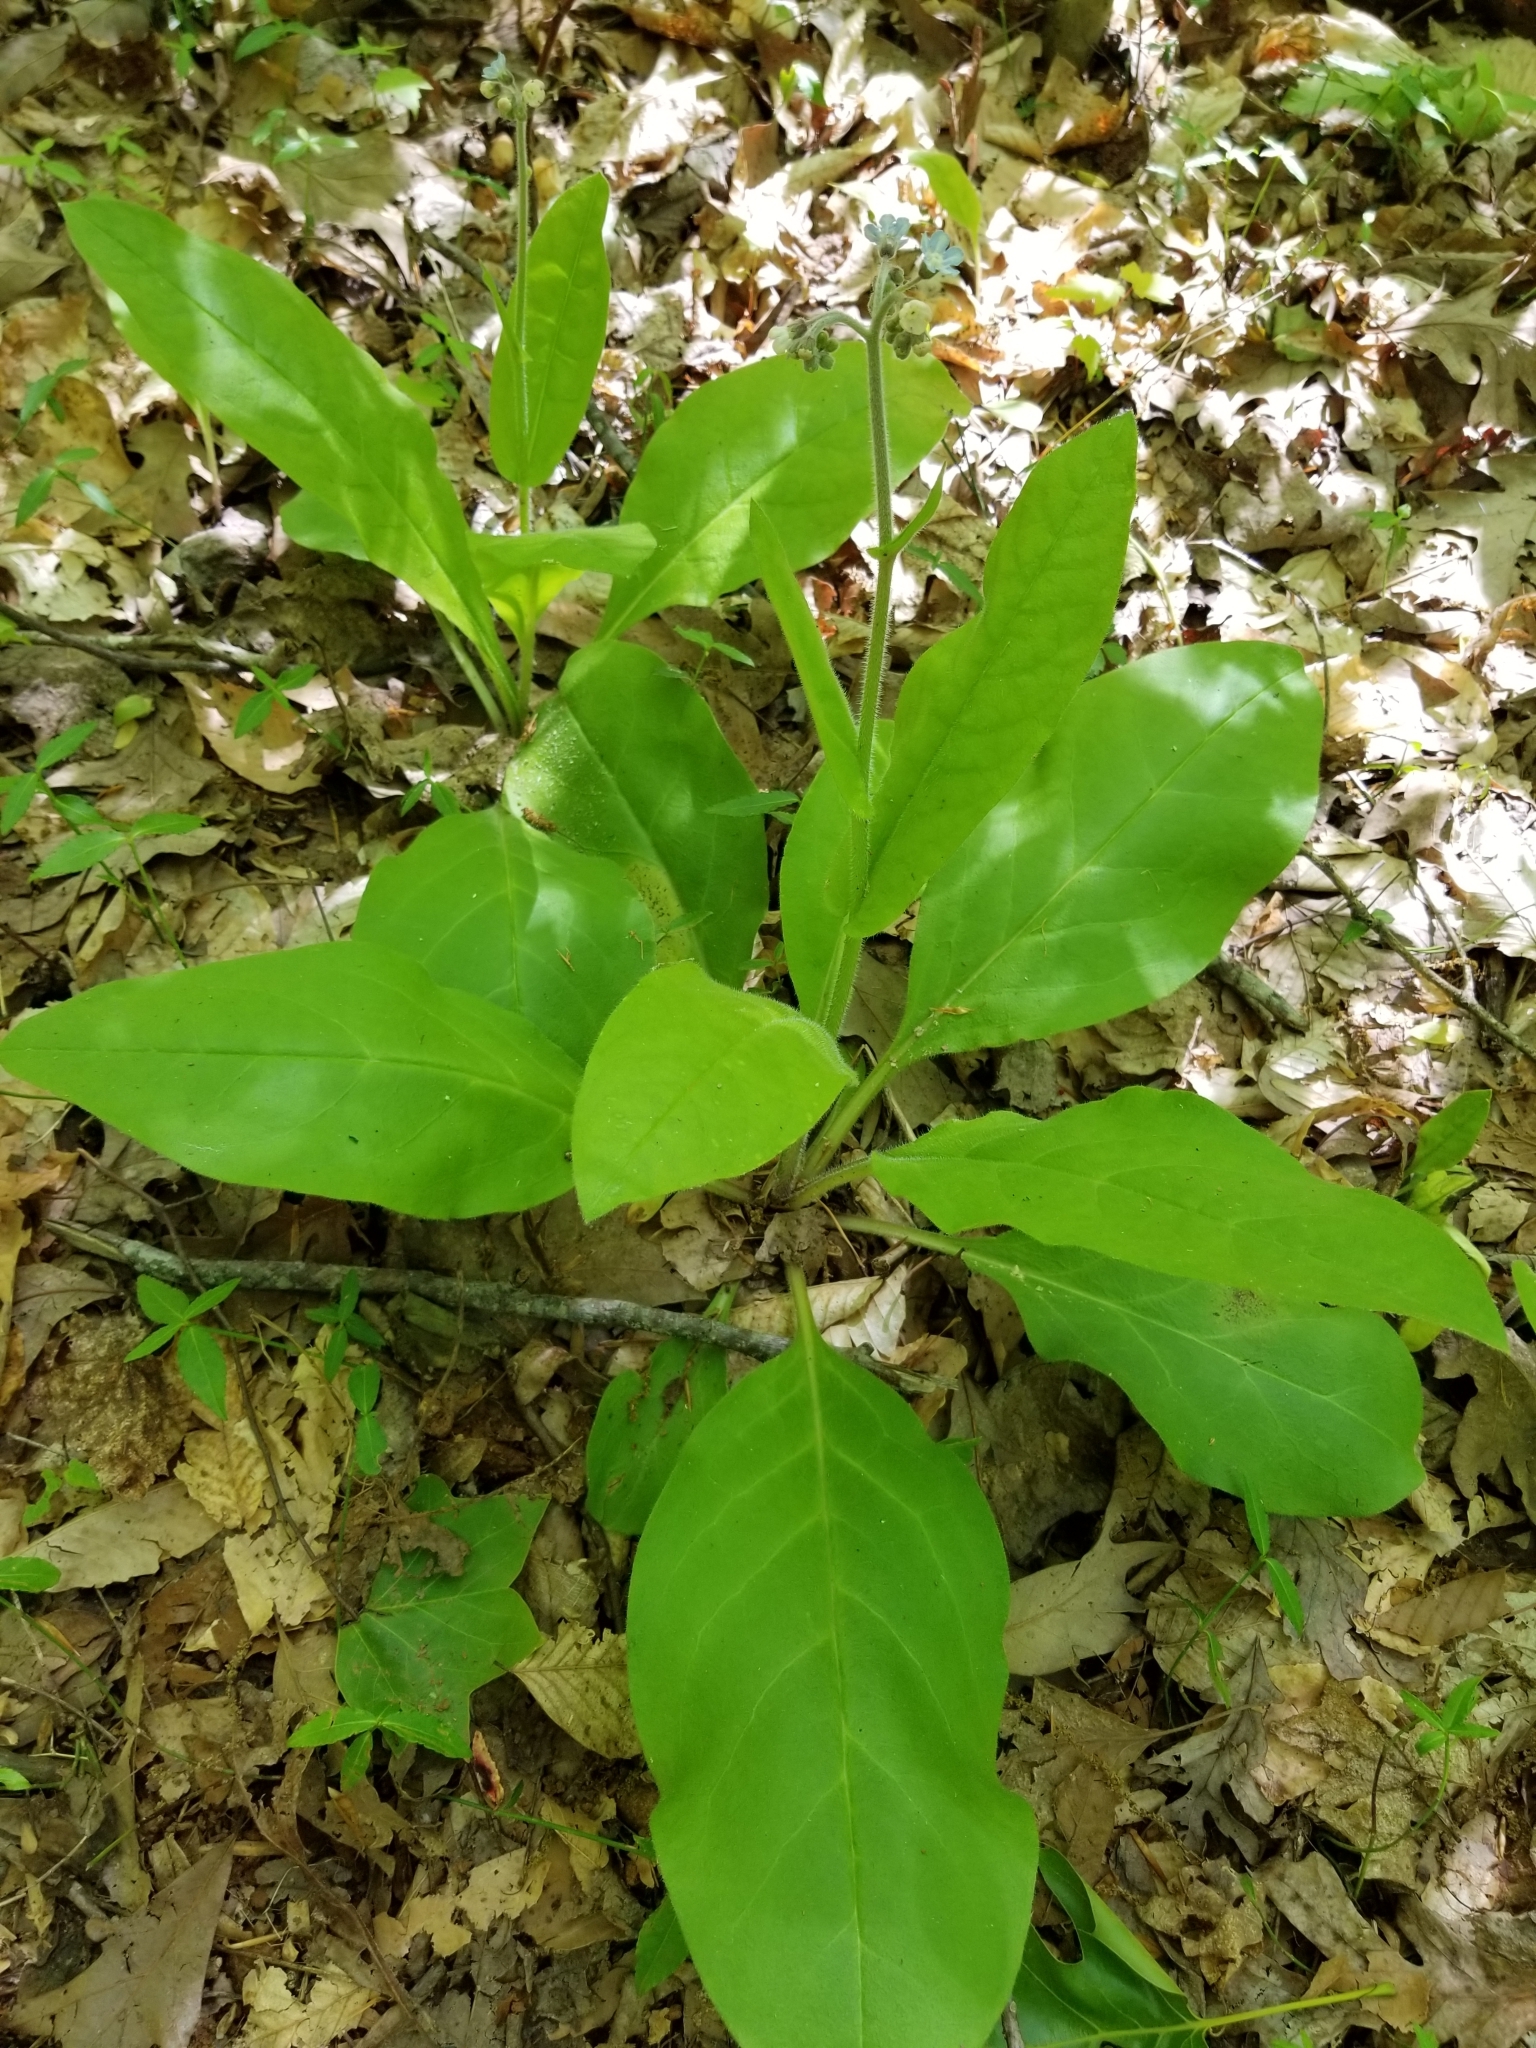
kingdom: Plantae
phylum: Tracheophyta
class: Magnoliopsida
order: Boraginales
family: Boraginaceae
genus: Andersonglossum
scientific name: Andersonglossum virginianum
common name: Wild comfrey
